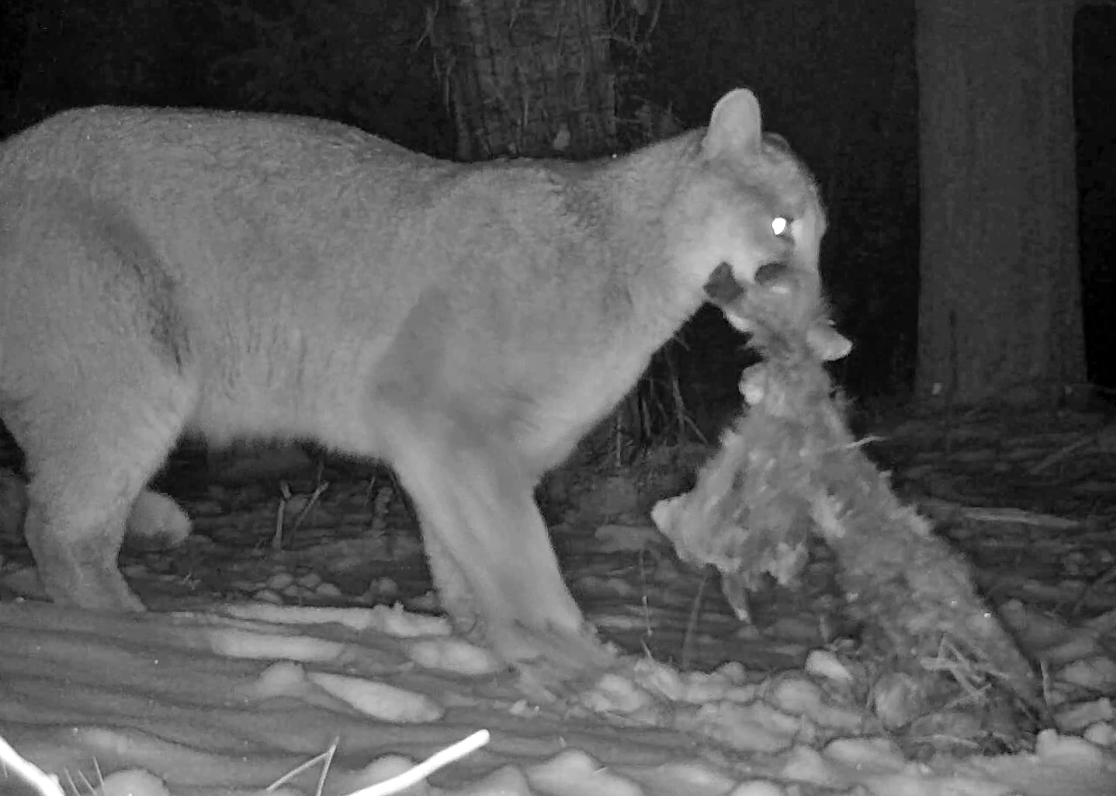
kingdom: Animalia
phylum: Chordata
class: Mammalia
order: Carnivora
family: Felidae
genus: Puma
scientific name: Puma concolor
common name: Puma
